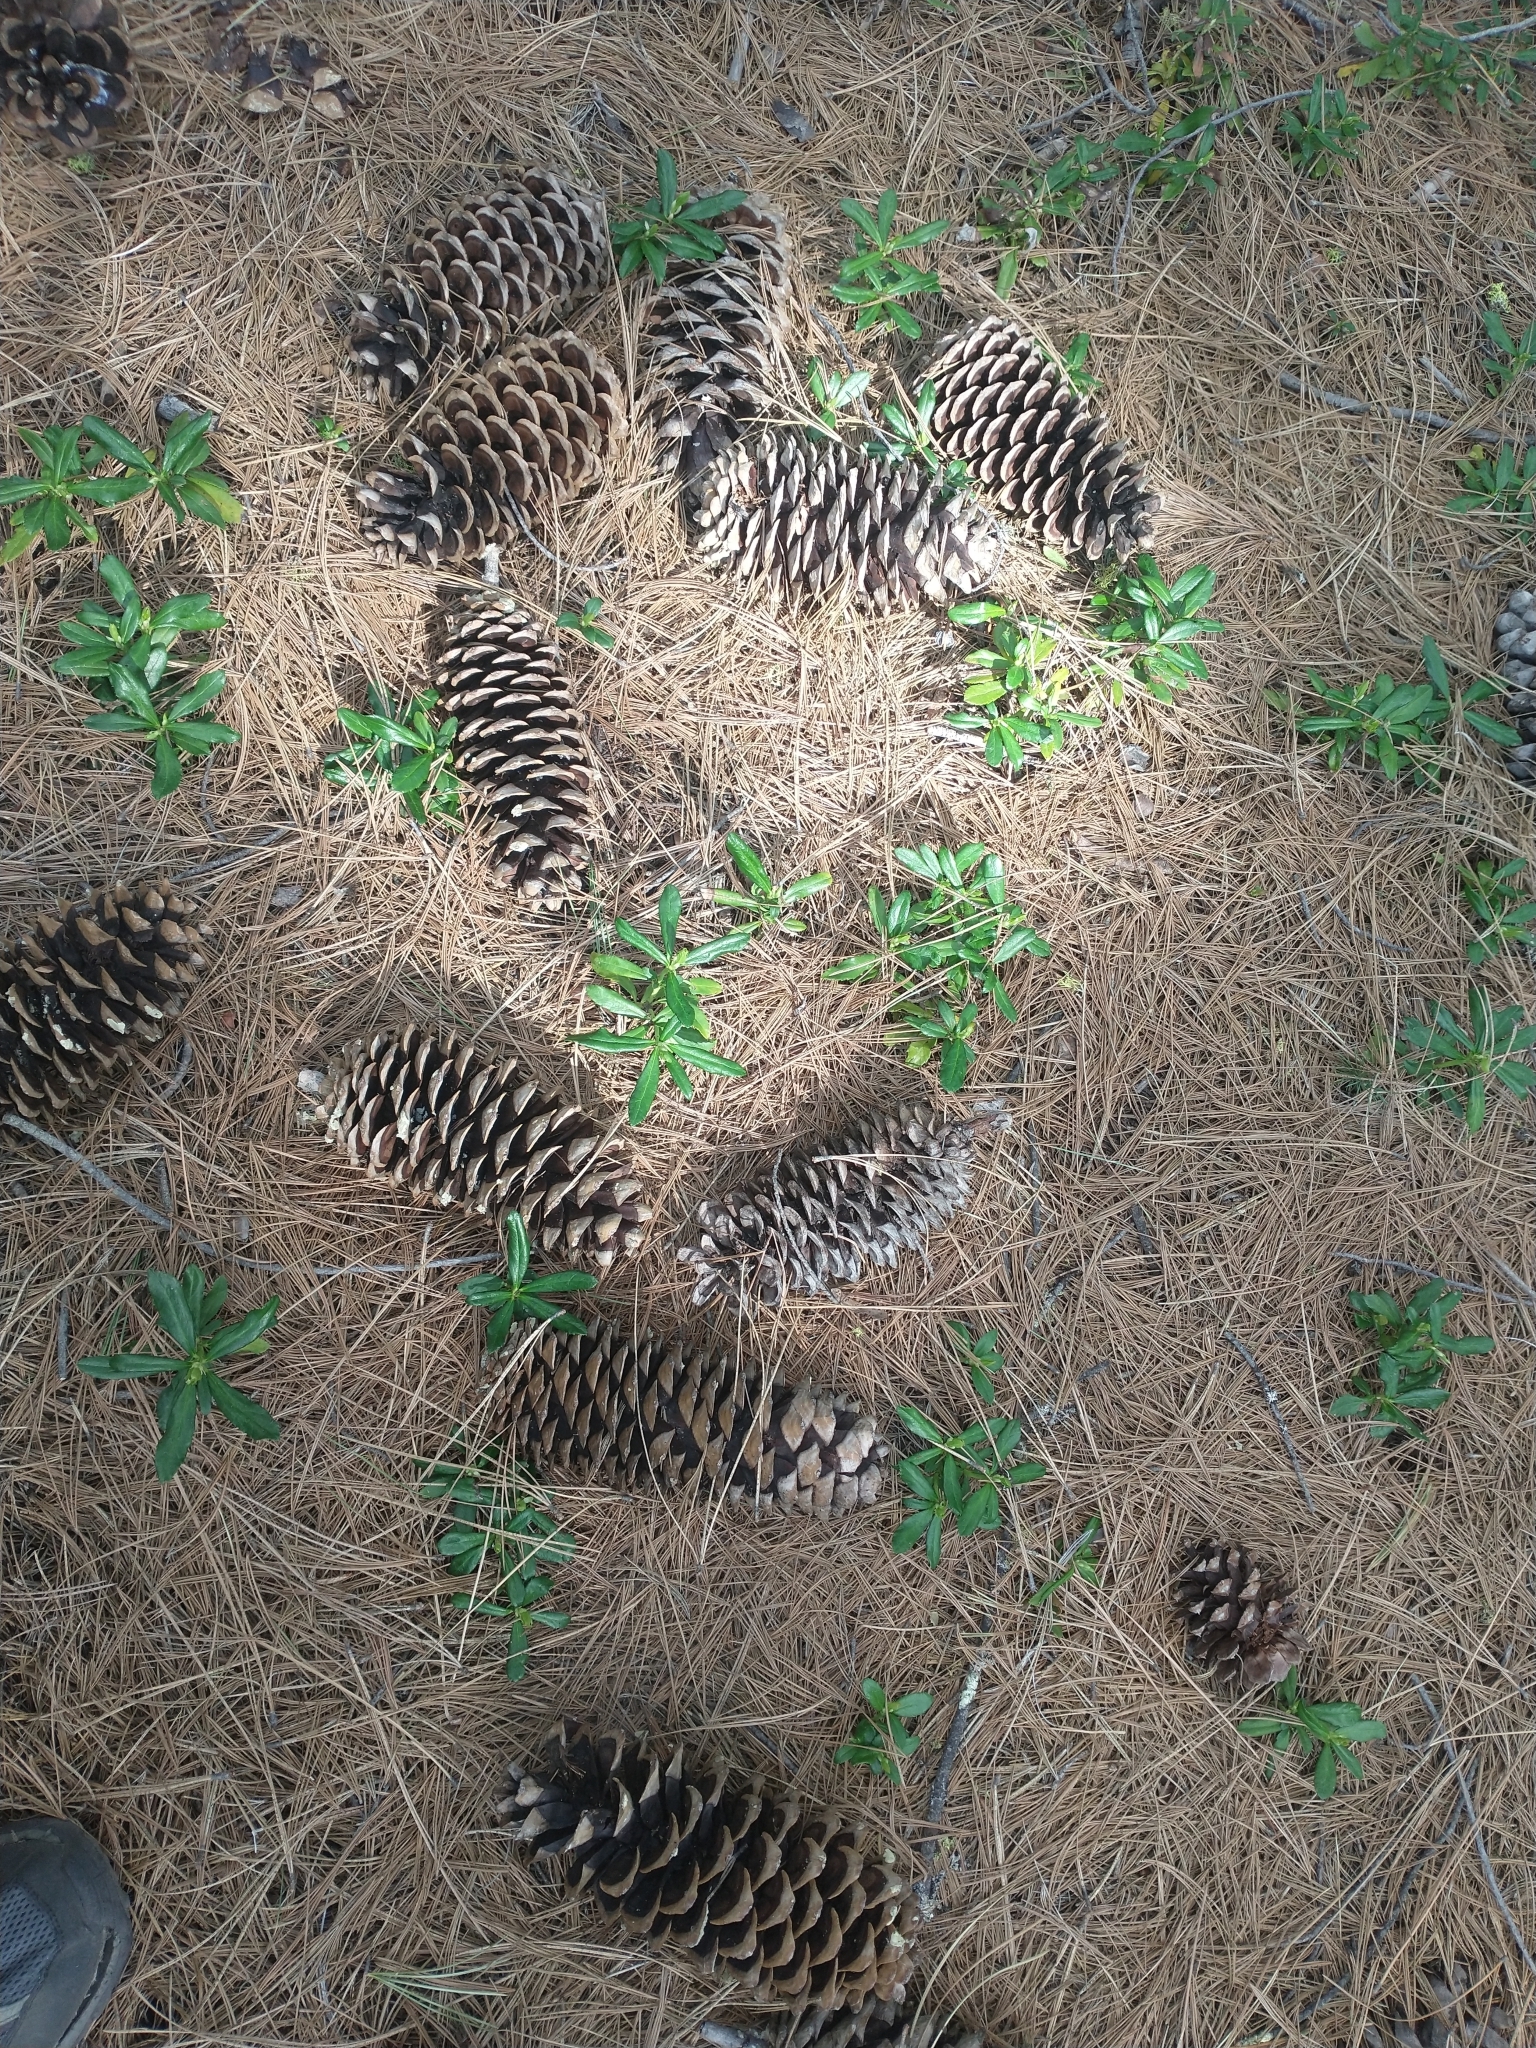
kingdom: Plantae
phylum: Tracheophyta
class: Magnoliopsida
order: Ericales
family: Ericaceae
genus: Chimaphila
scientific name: Chimaphila umbellata
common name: Pipsissewa
